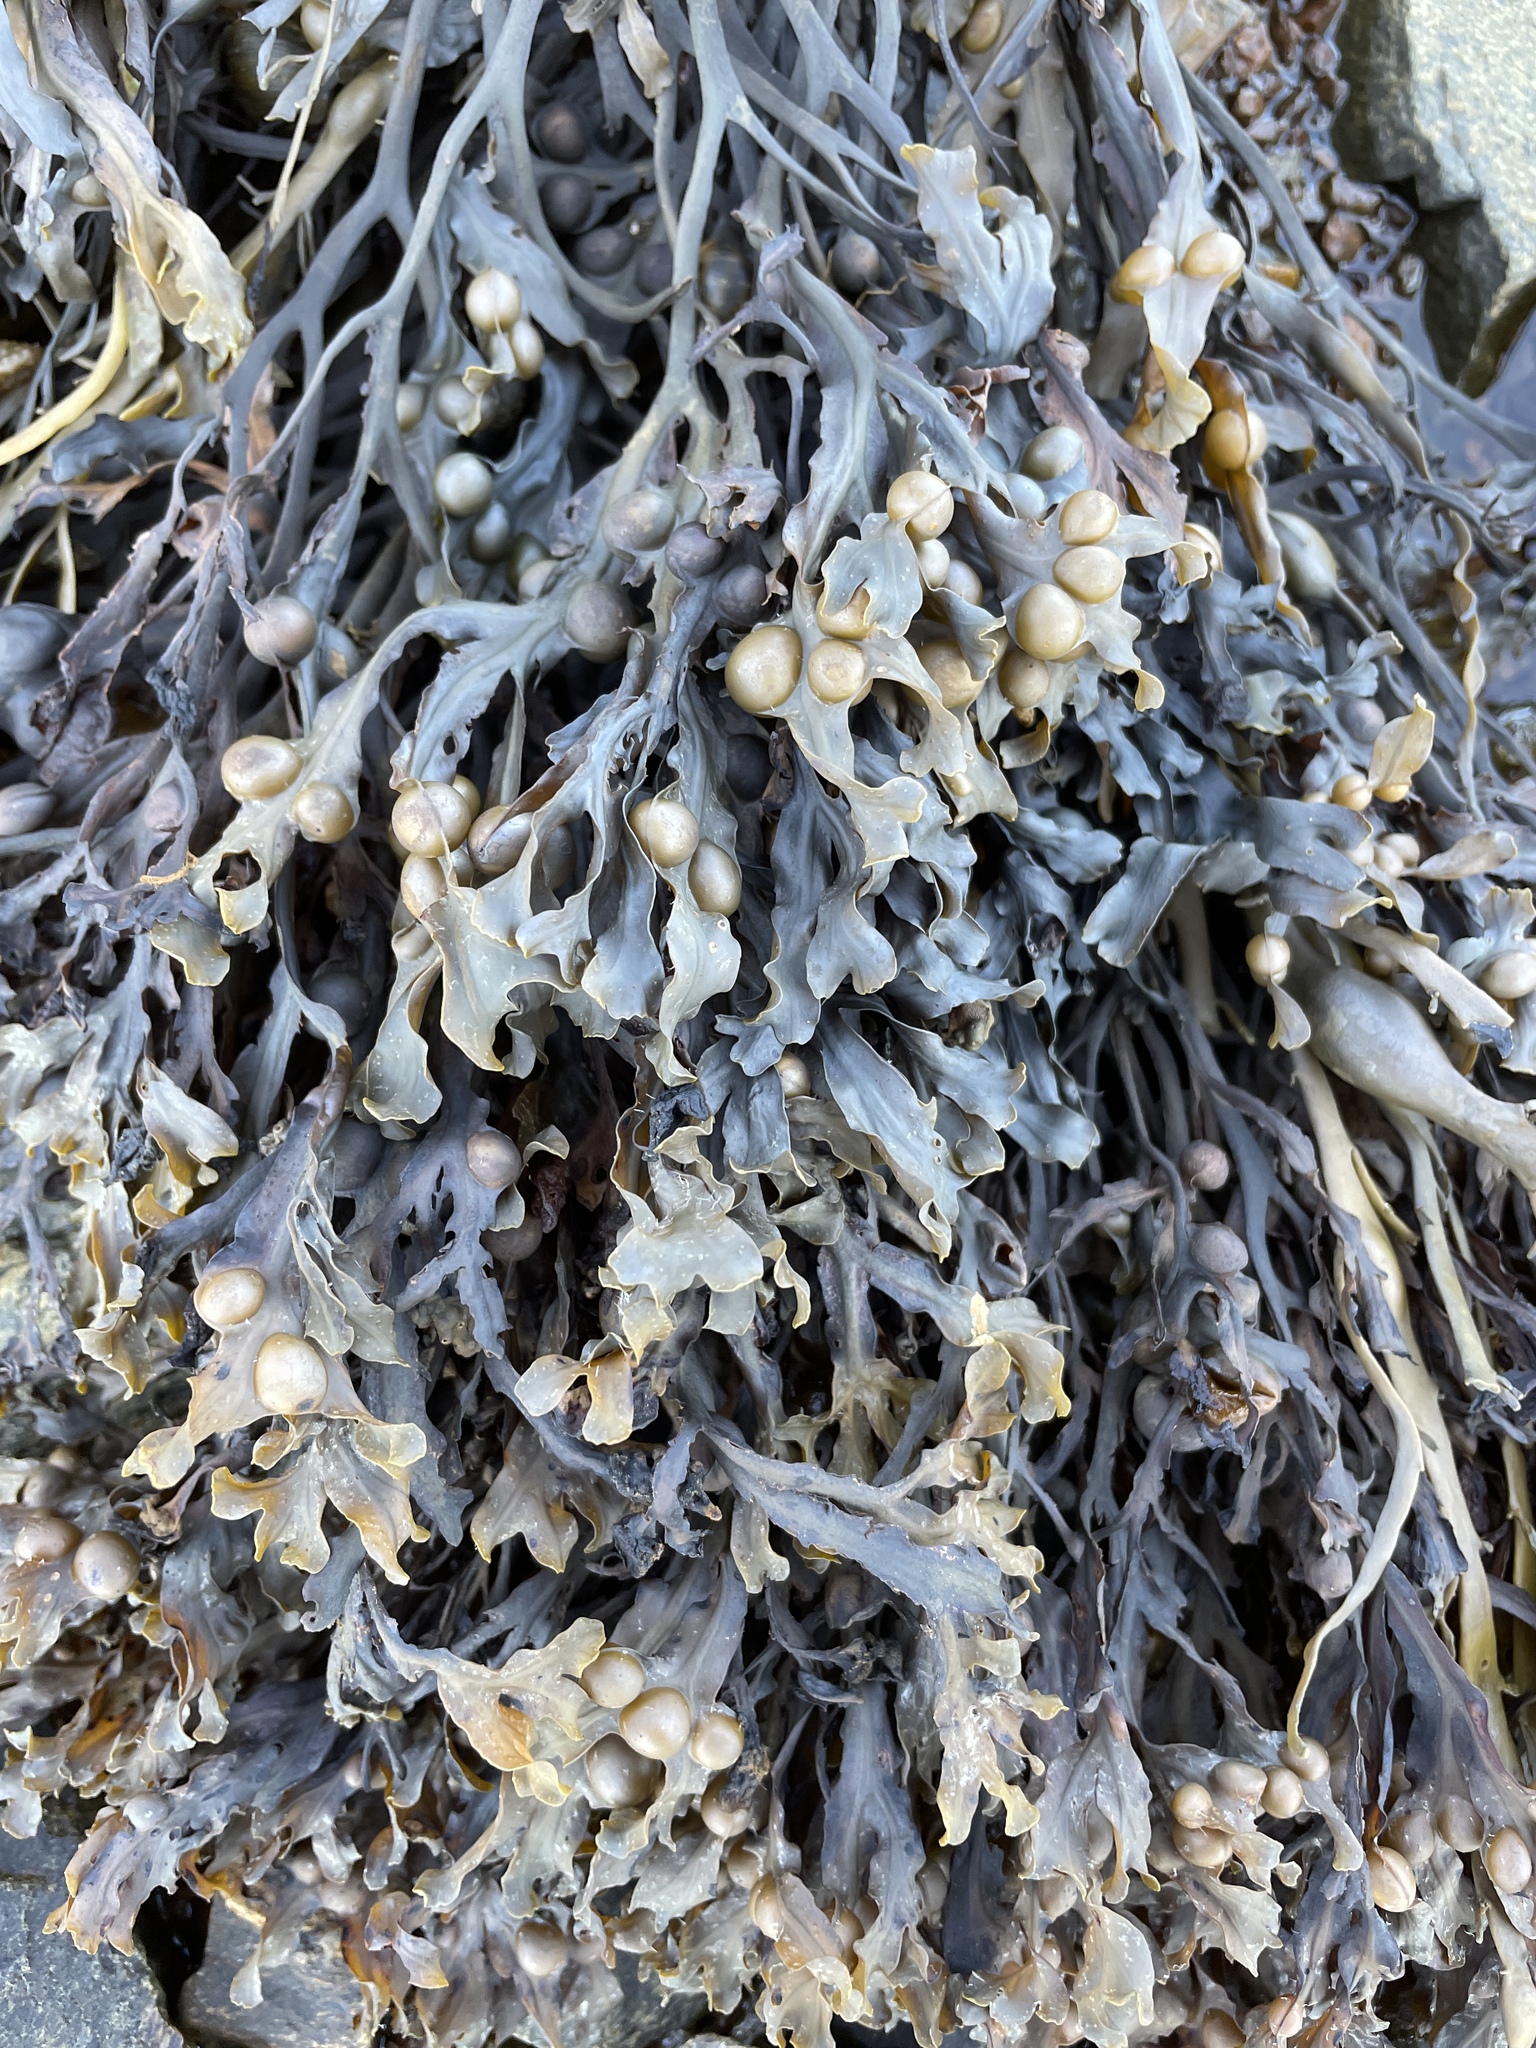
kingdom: Chromista
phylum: Ochrophyta
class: Phaeophyceae
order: Fucales
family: Fucaceae
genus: Fucus
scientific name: Fucus vesiculosus
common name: Bladder wrack
